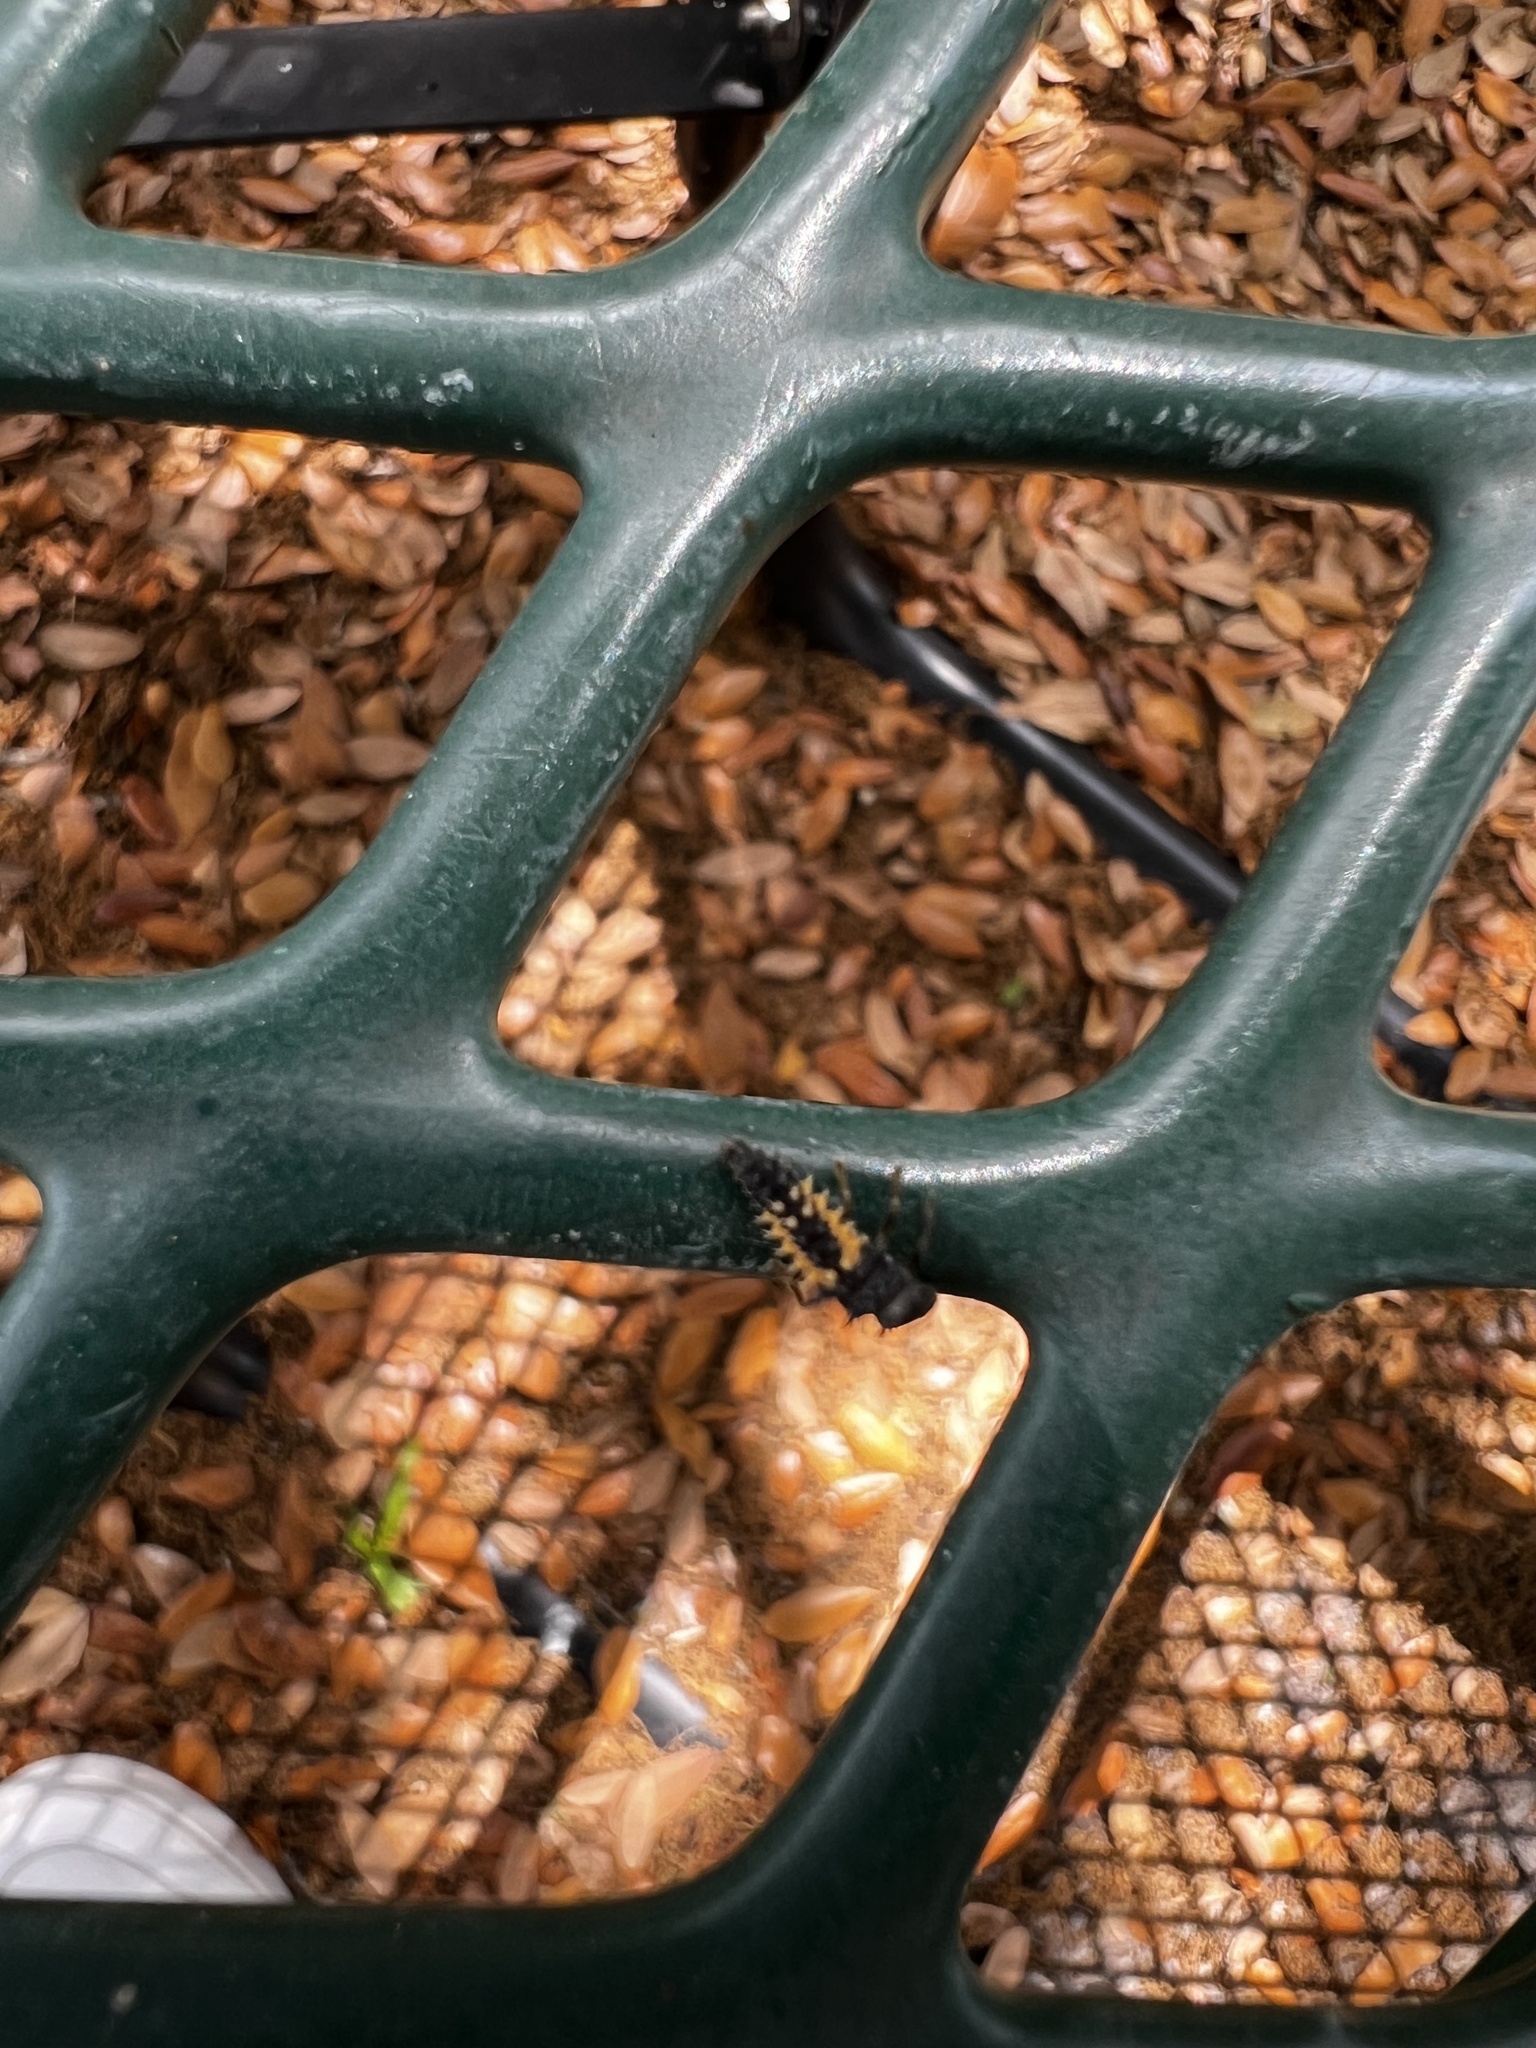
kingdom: Animalia
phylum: Arthropoda
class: Insecta
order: Coleoptera
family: Coccinellidae
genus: Harmonia
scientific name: Harmonia axyridis
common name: Harlequin ladybird
